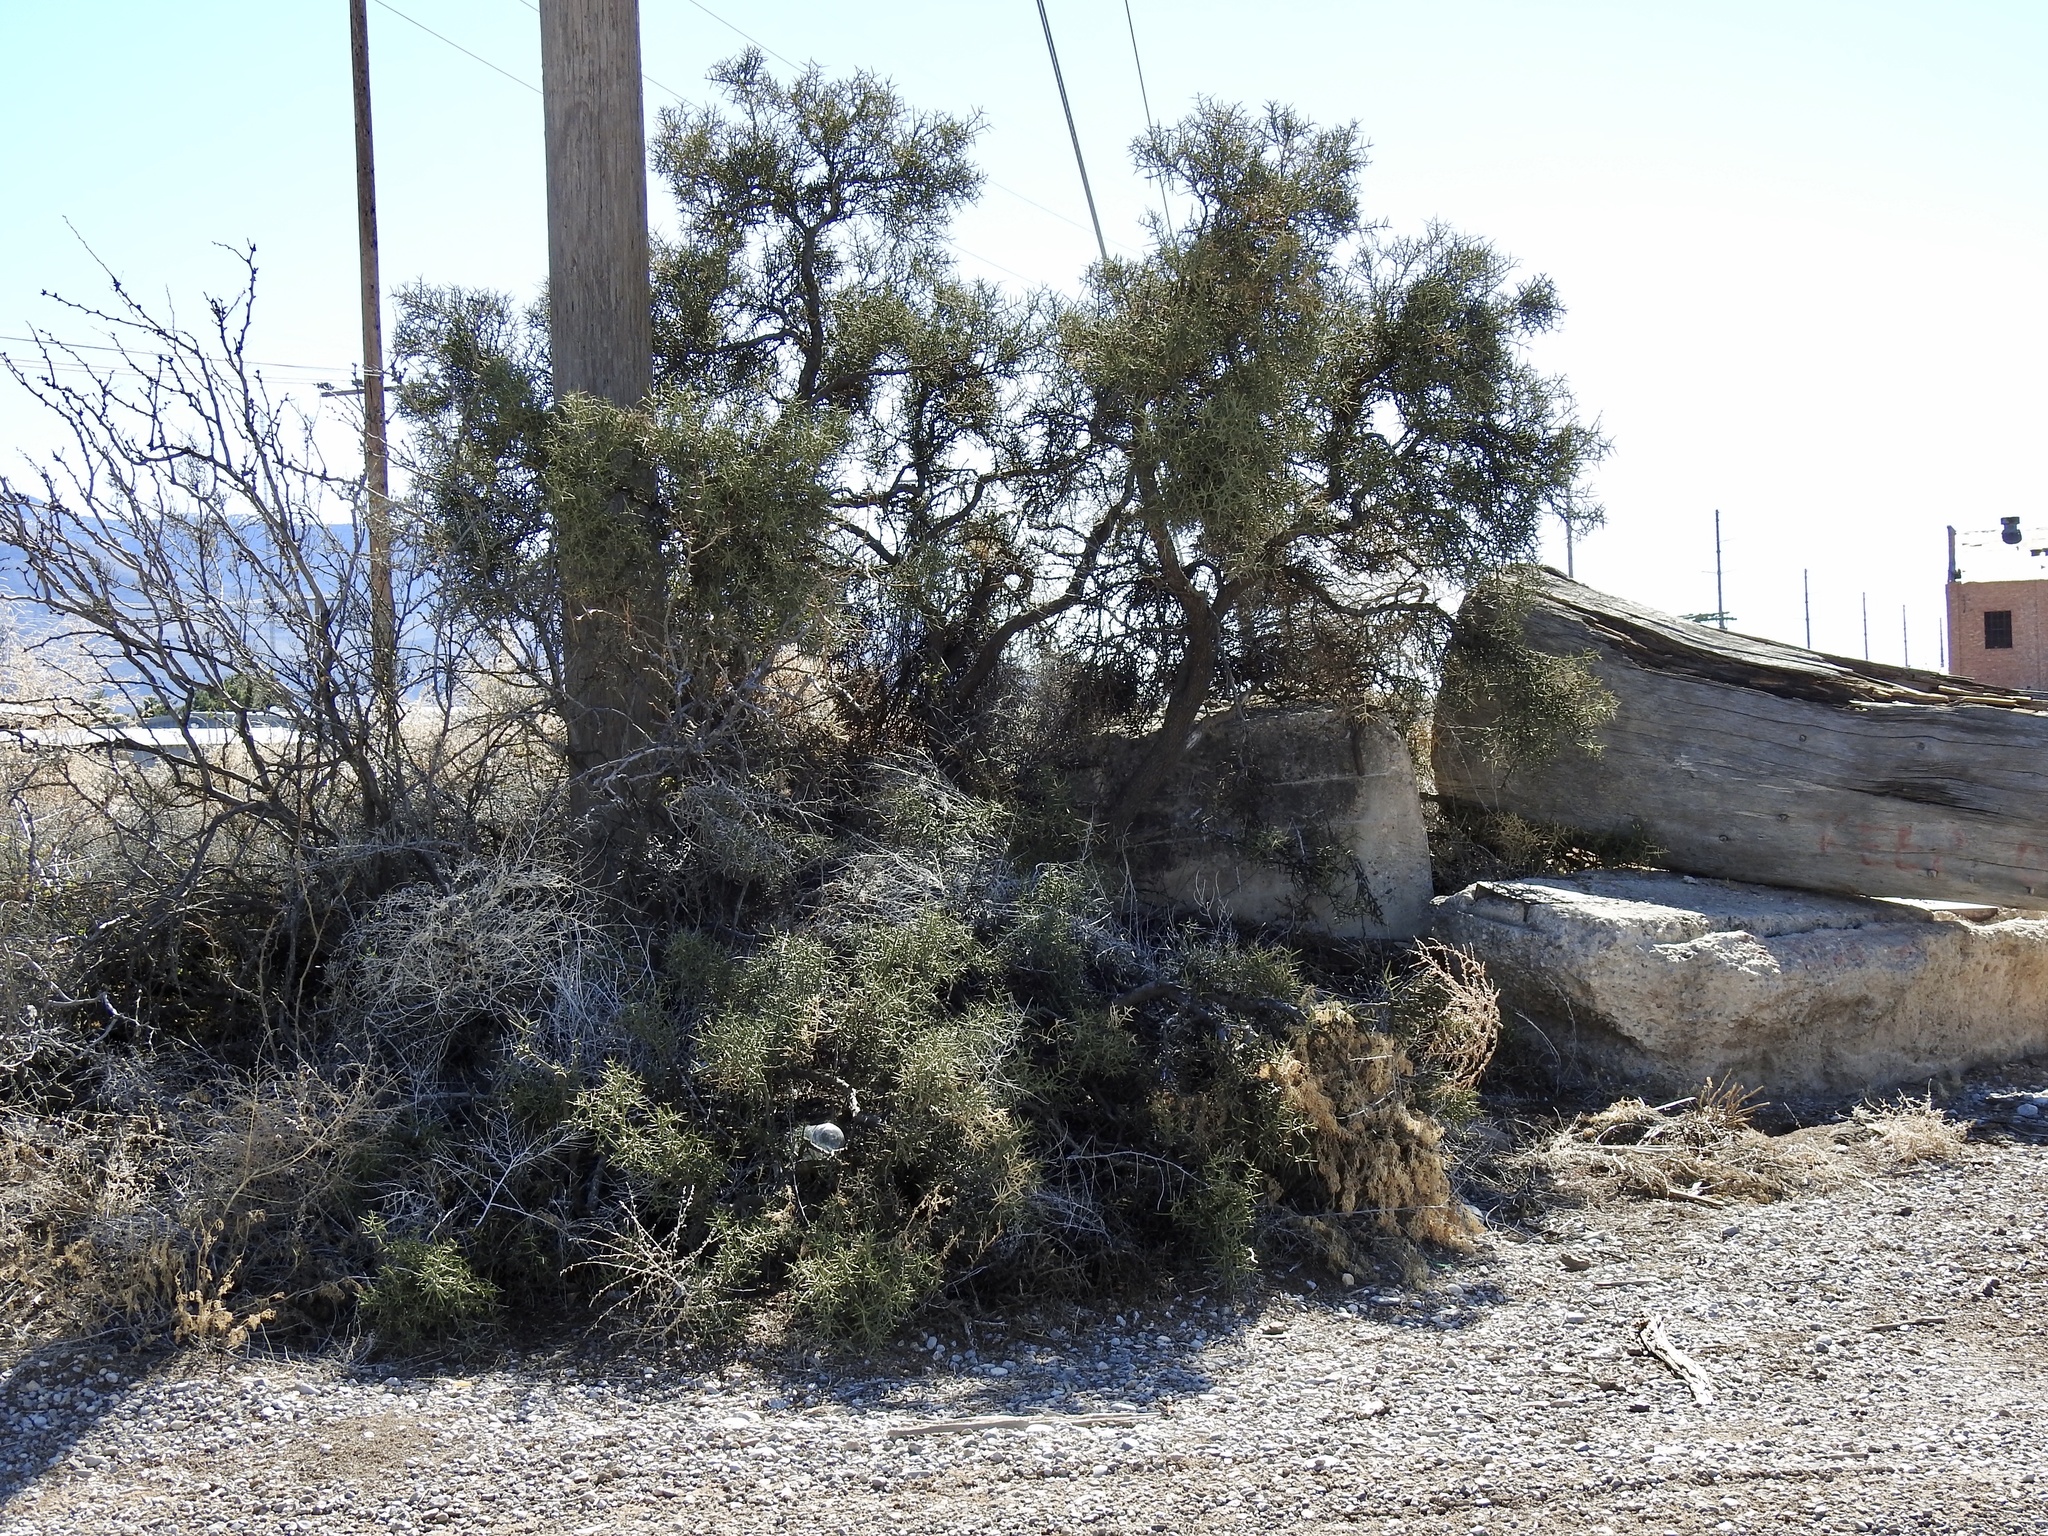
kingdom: Plantae
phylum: Tracheophyta
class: Magnoliopsida
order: Brassicales
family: Koeberliniaceae
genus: Koeberlinia
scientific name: Koeberlinia spinosa
